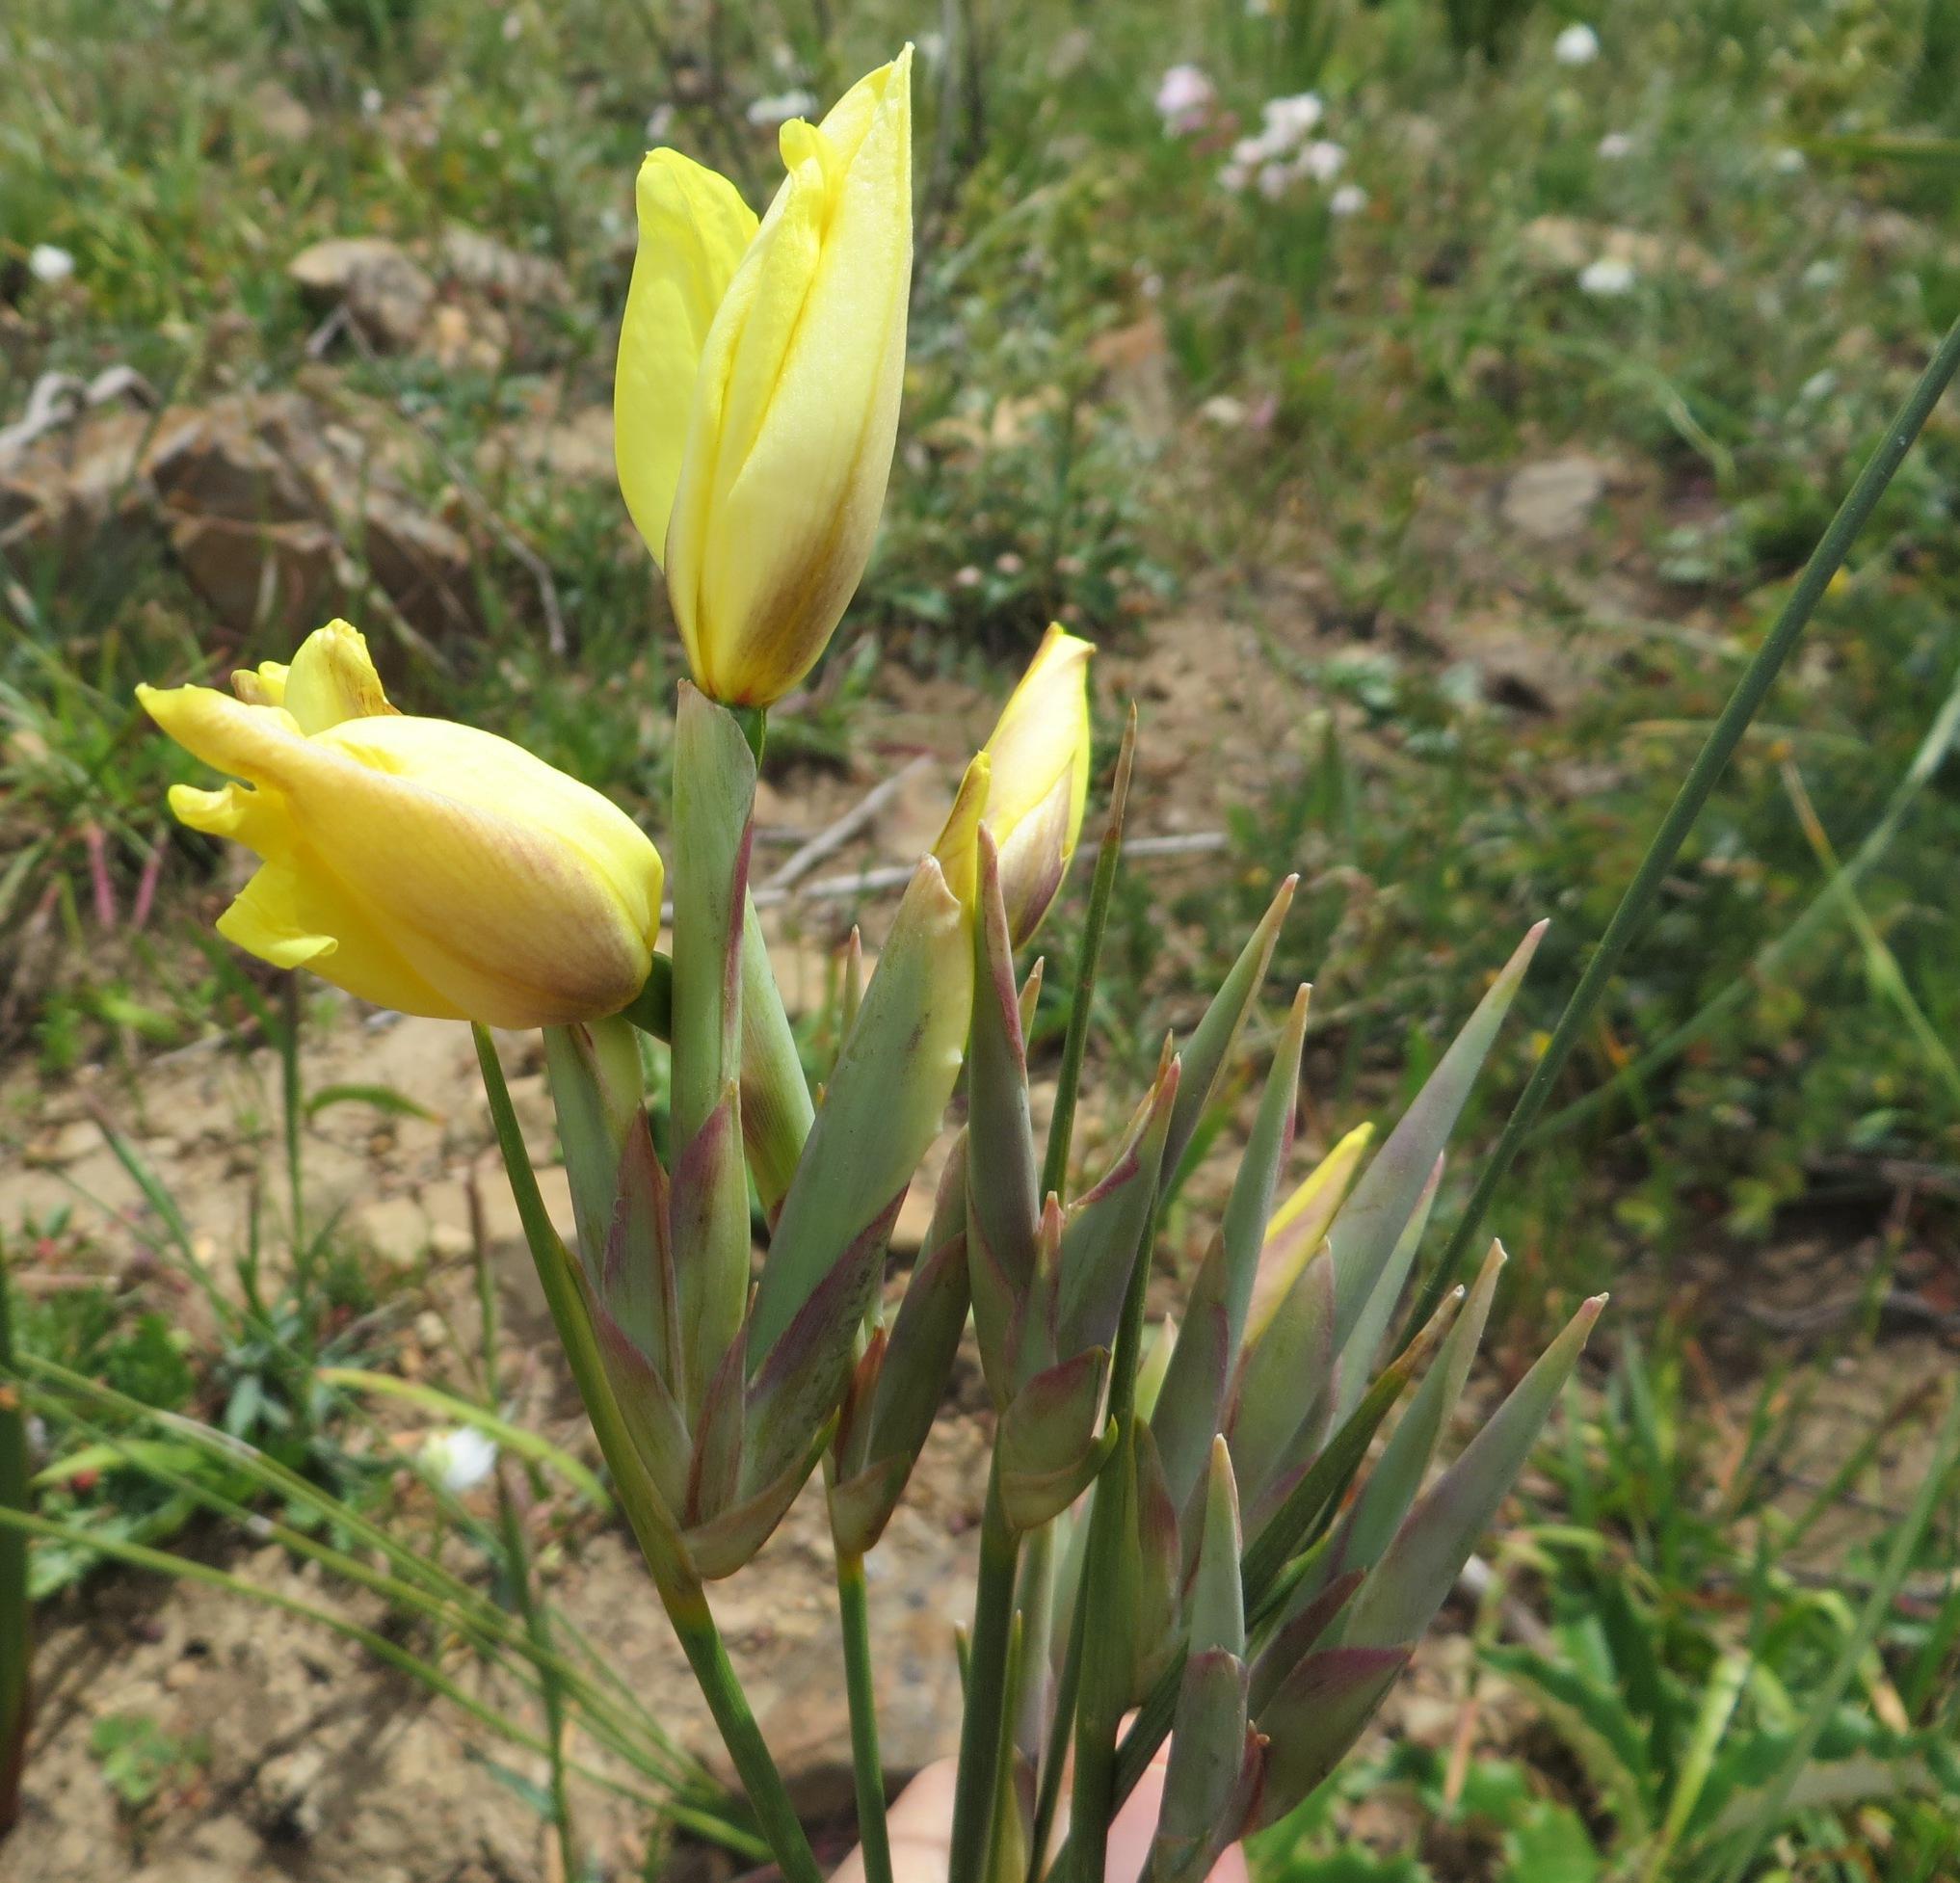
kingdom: Plantae
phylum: Tracheophyta
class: Liliopsida
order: Asparagales
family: Iridaceae
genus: Bobartia
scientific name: Bobartia filiformis
